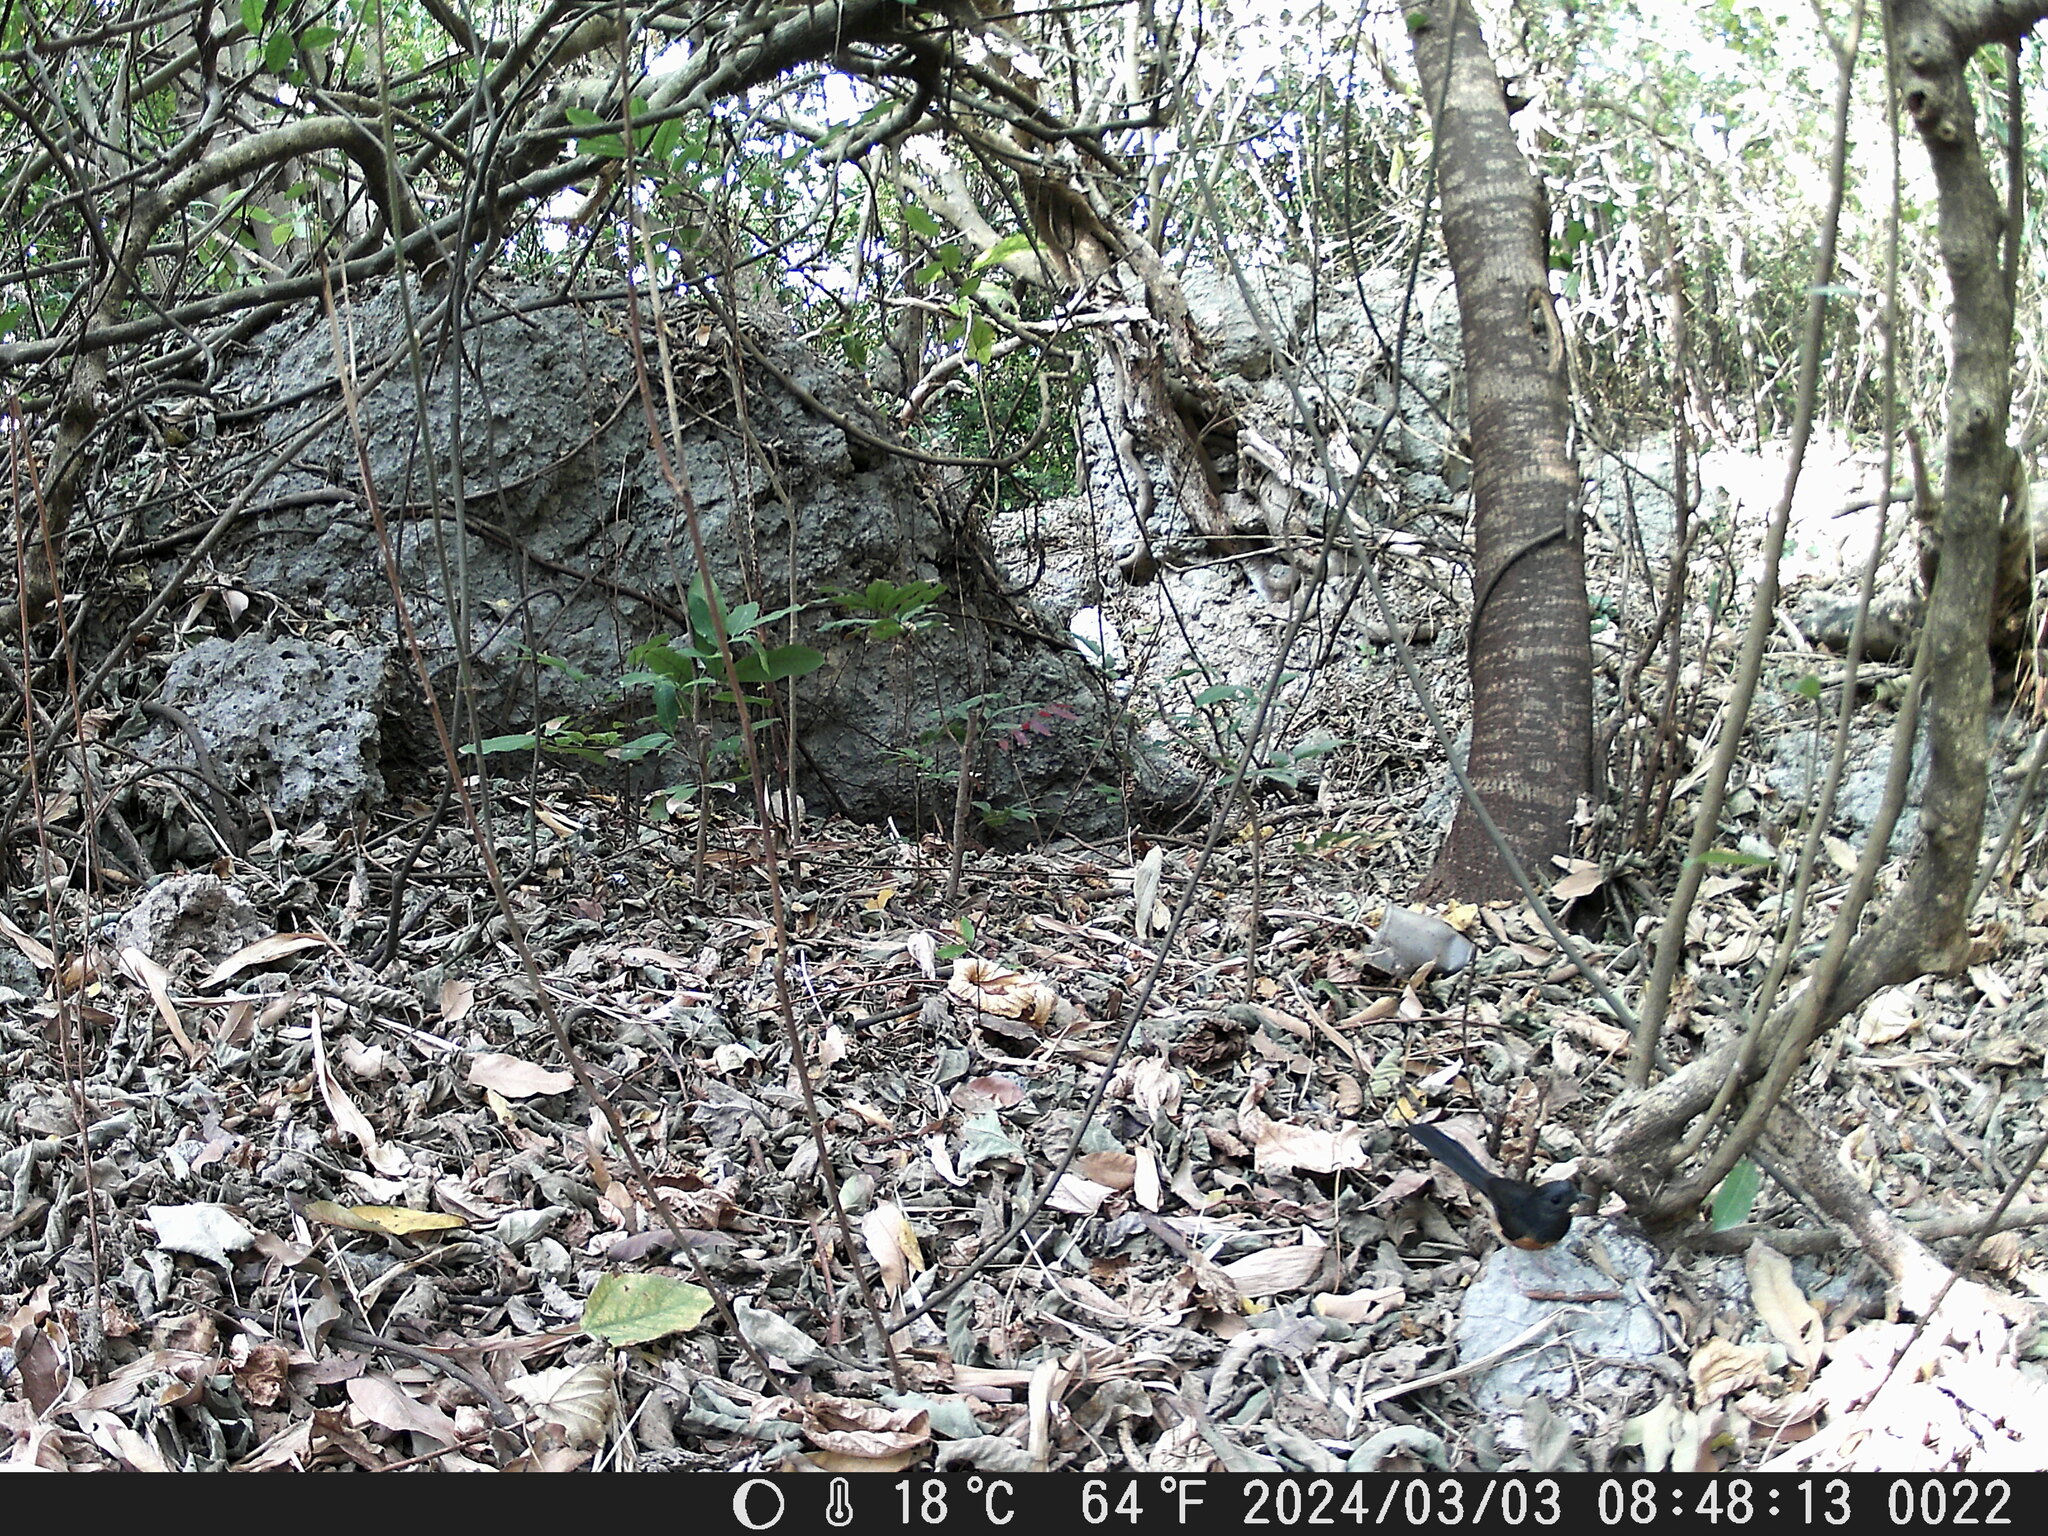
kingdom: Animalia
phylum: Chordata
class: Aves
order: Passeriformes
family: Muscicapidae
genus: Copsychus
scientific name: Copsychus malabaricus
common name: White-rumped shama
